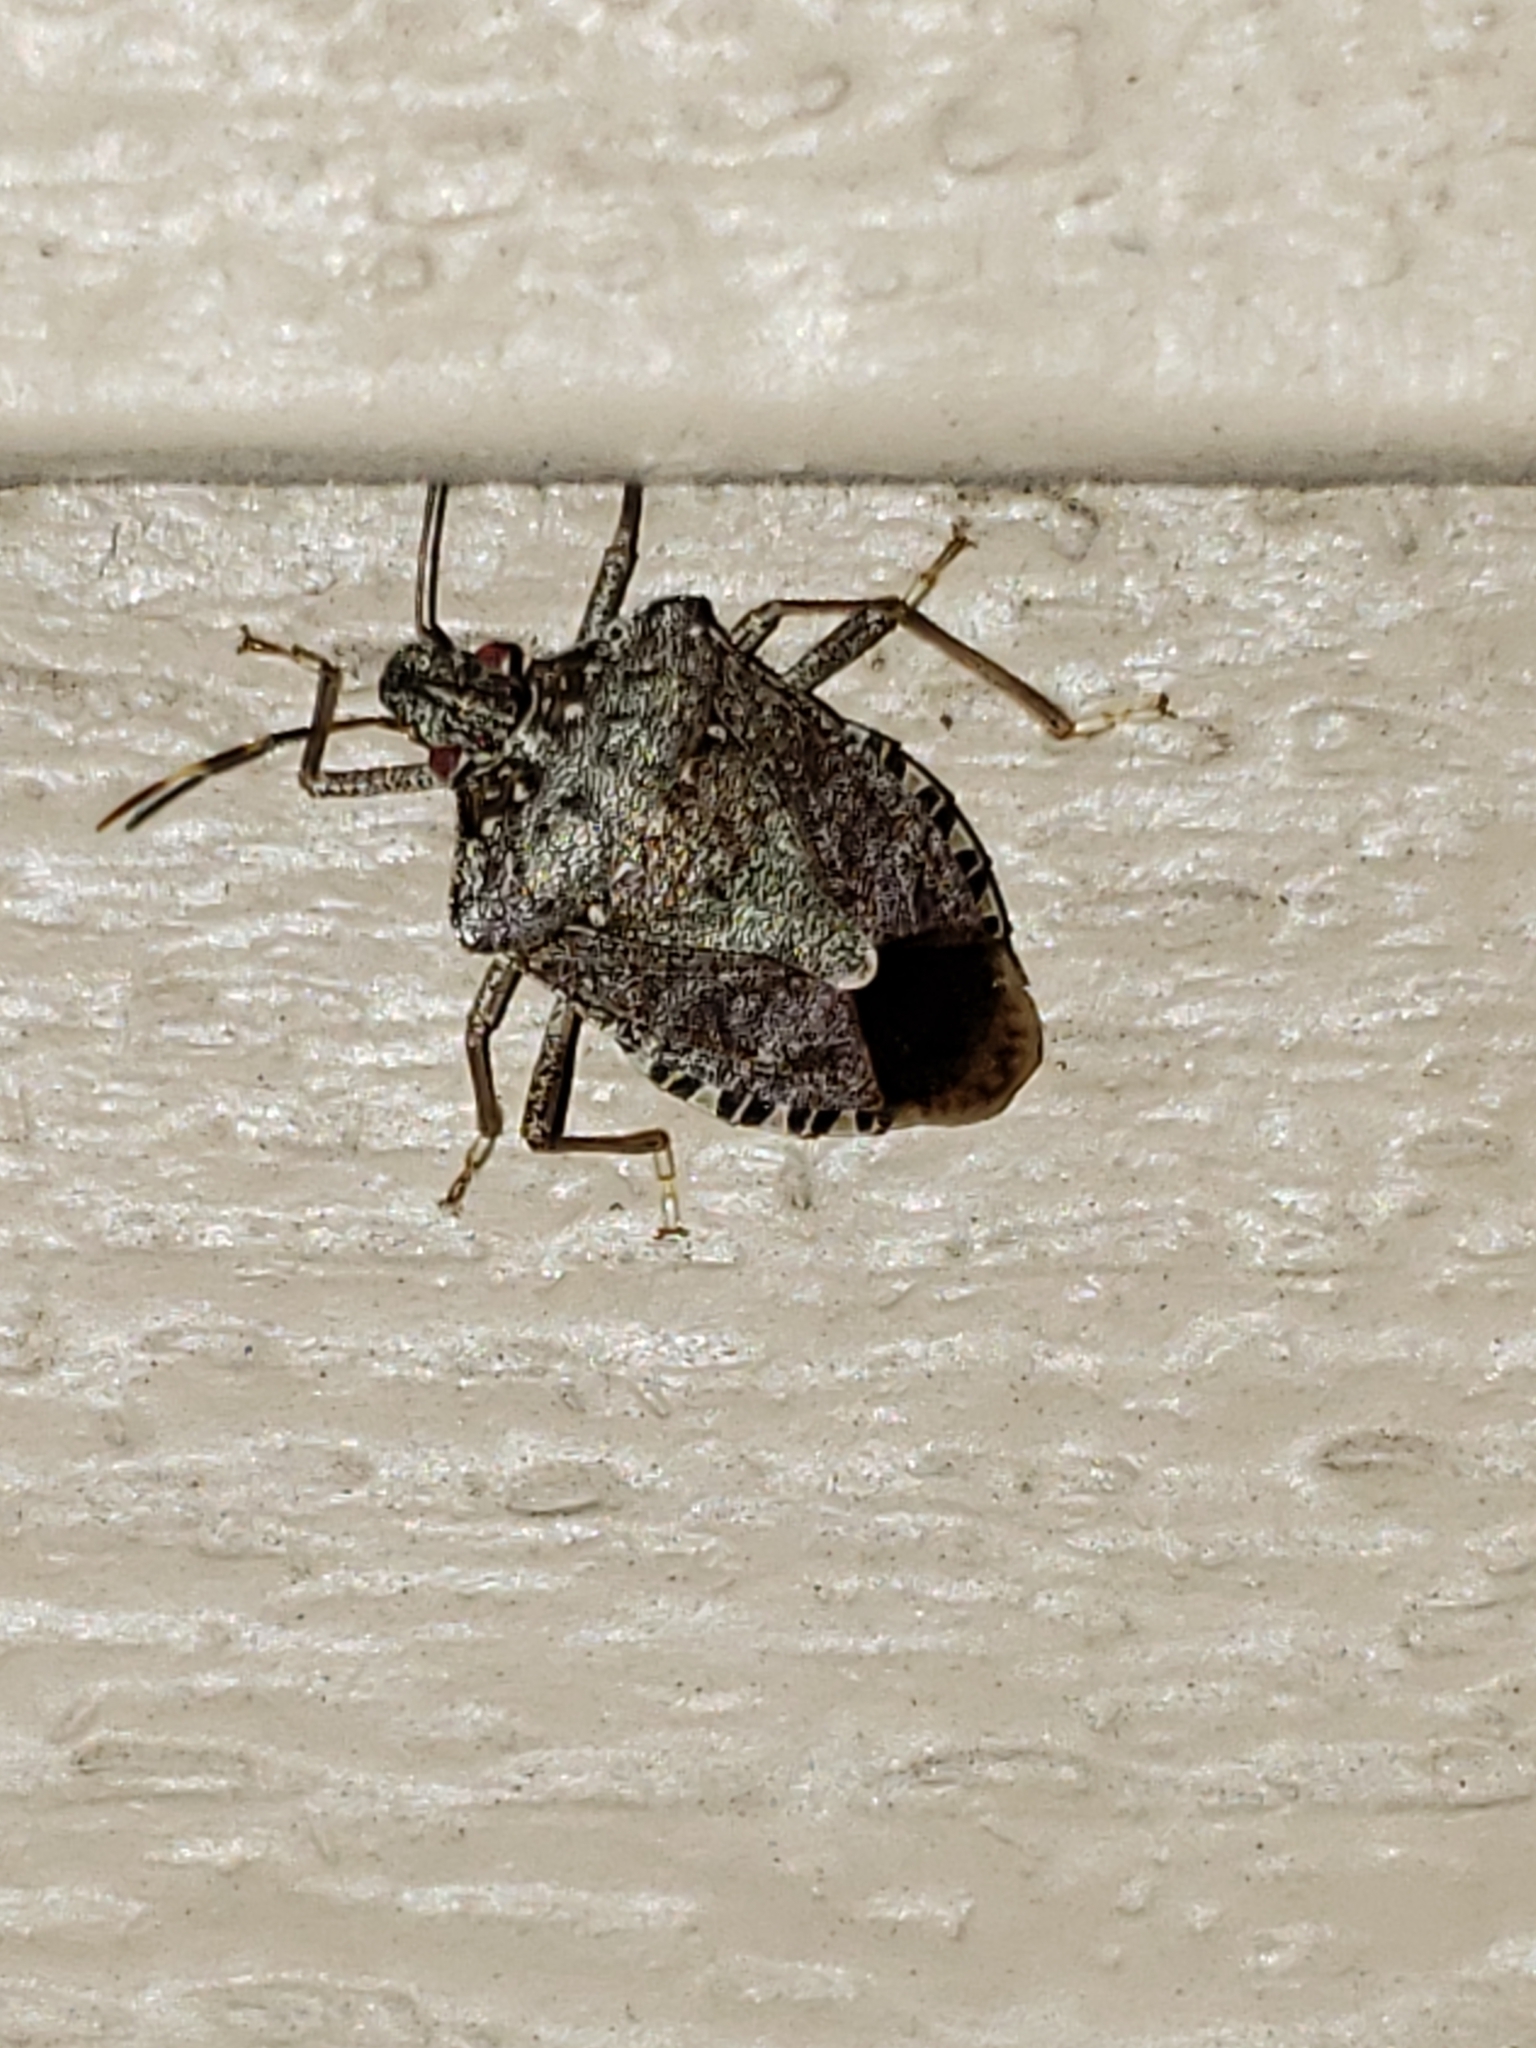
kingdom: Animalia
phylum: Arthropoda
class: Insecta
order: Hemiptera
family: Pentatomidae
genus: Halyomorpha
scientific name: Halyomorpha halys
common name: Brown marmorated stink bug
